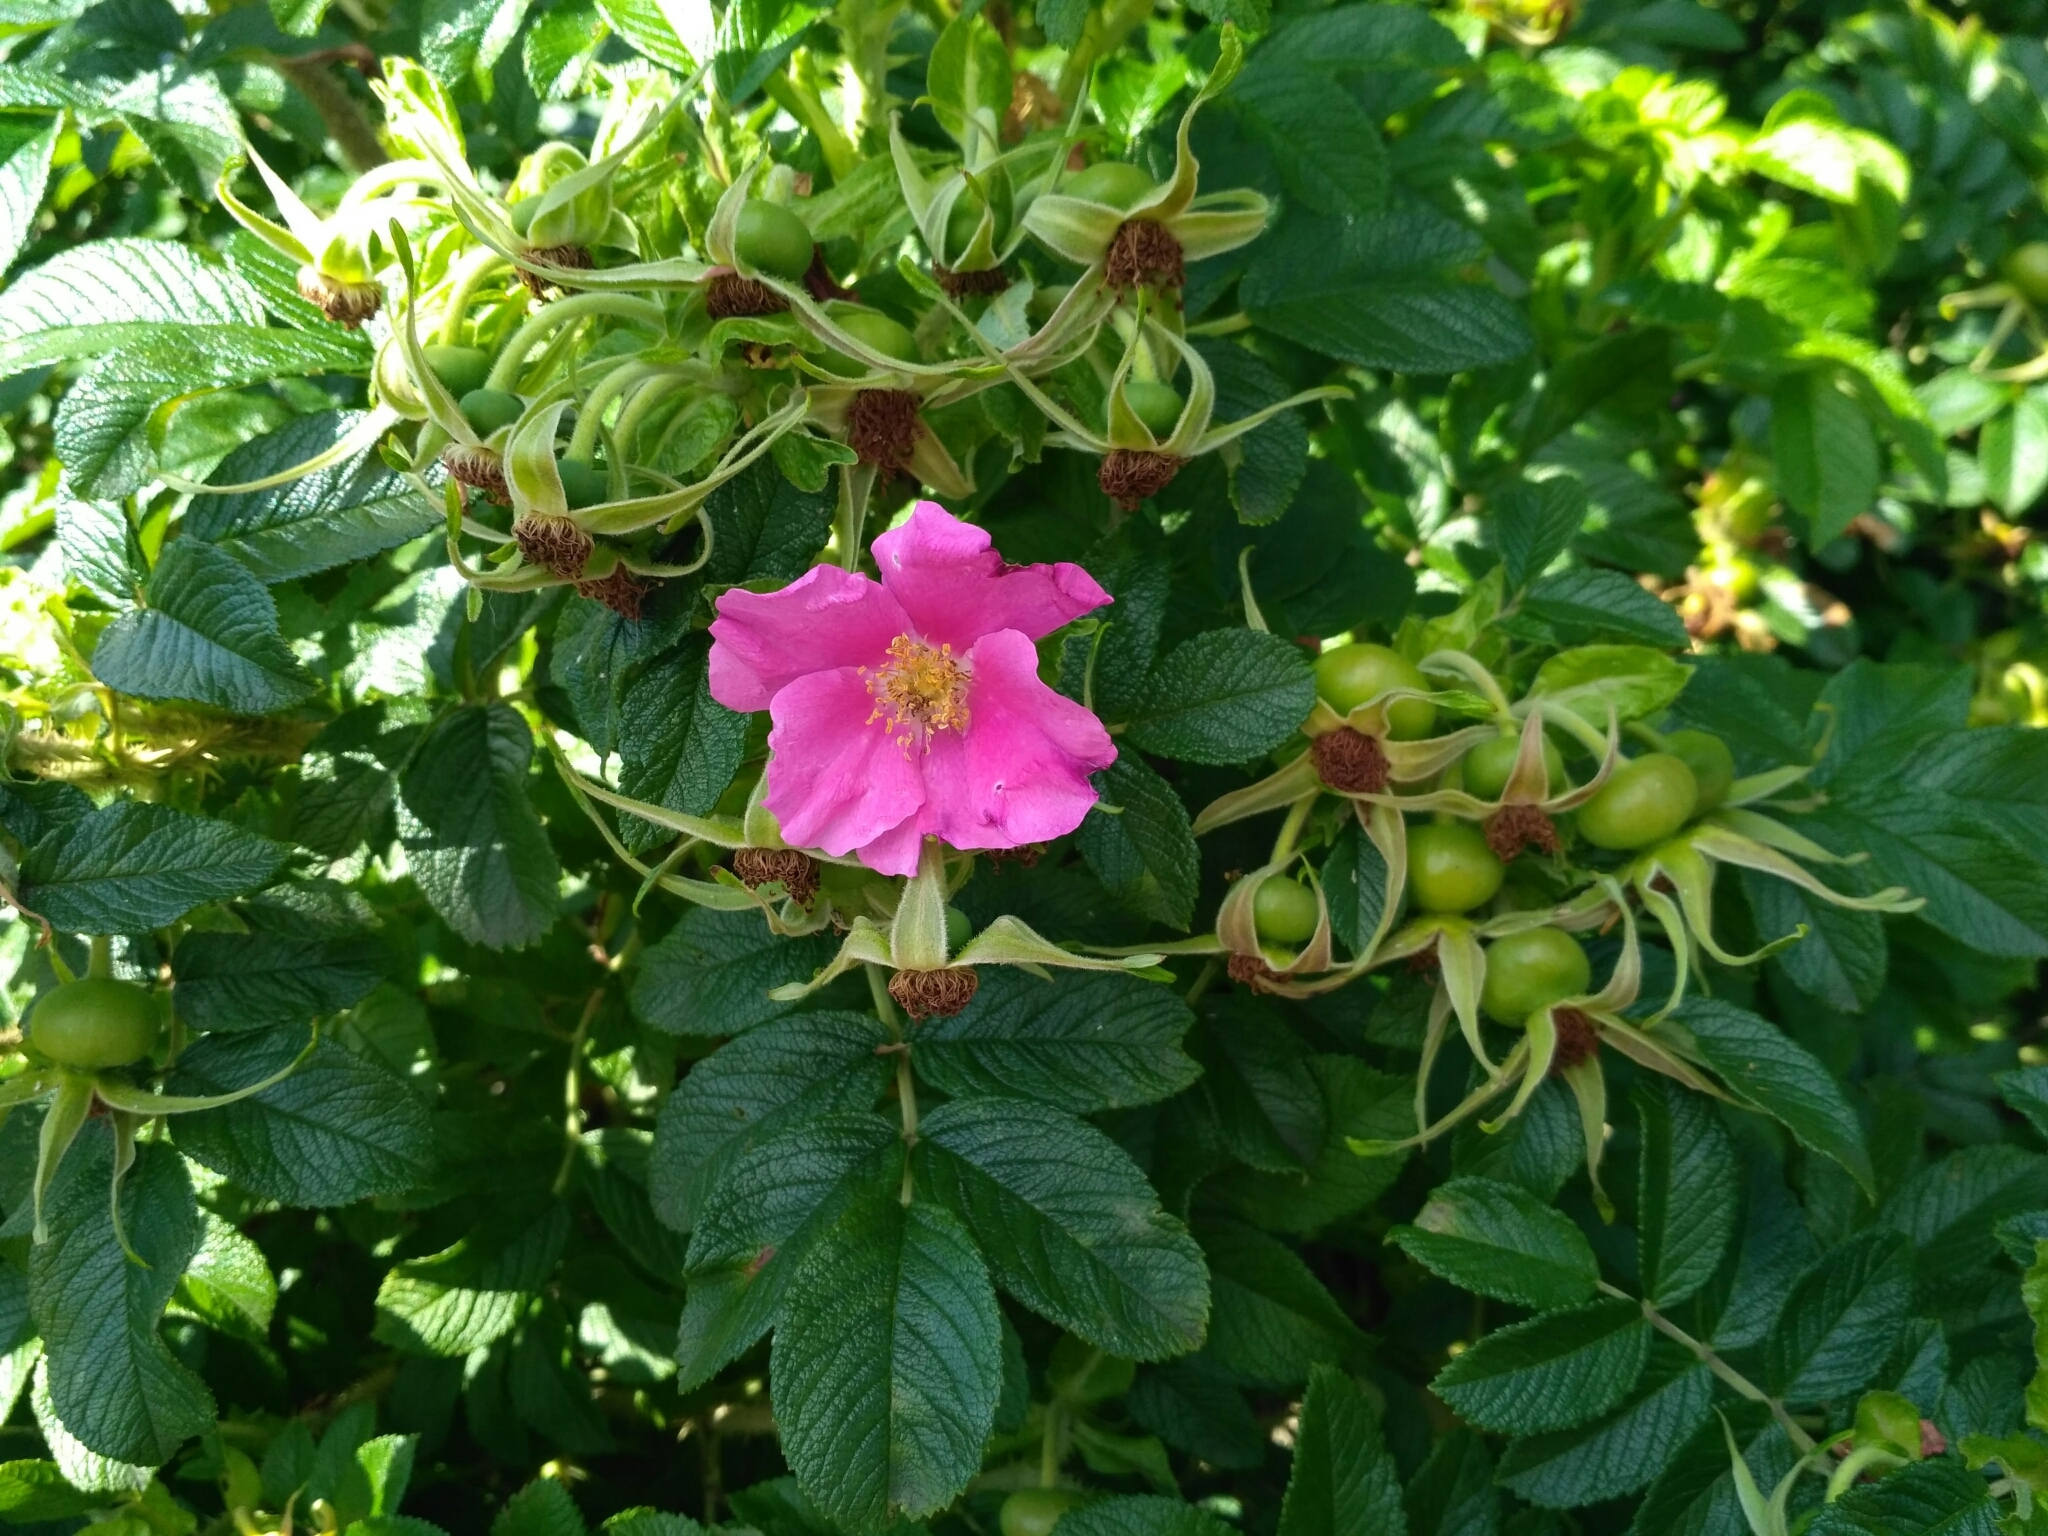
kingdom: Plantae
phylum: Tracheophyta
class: Magnoliopsida
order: Rosales
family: Rosaceae
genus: Rosa
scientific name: Rosa rugosa
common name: Japanese rose
